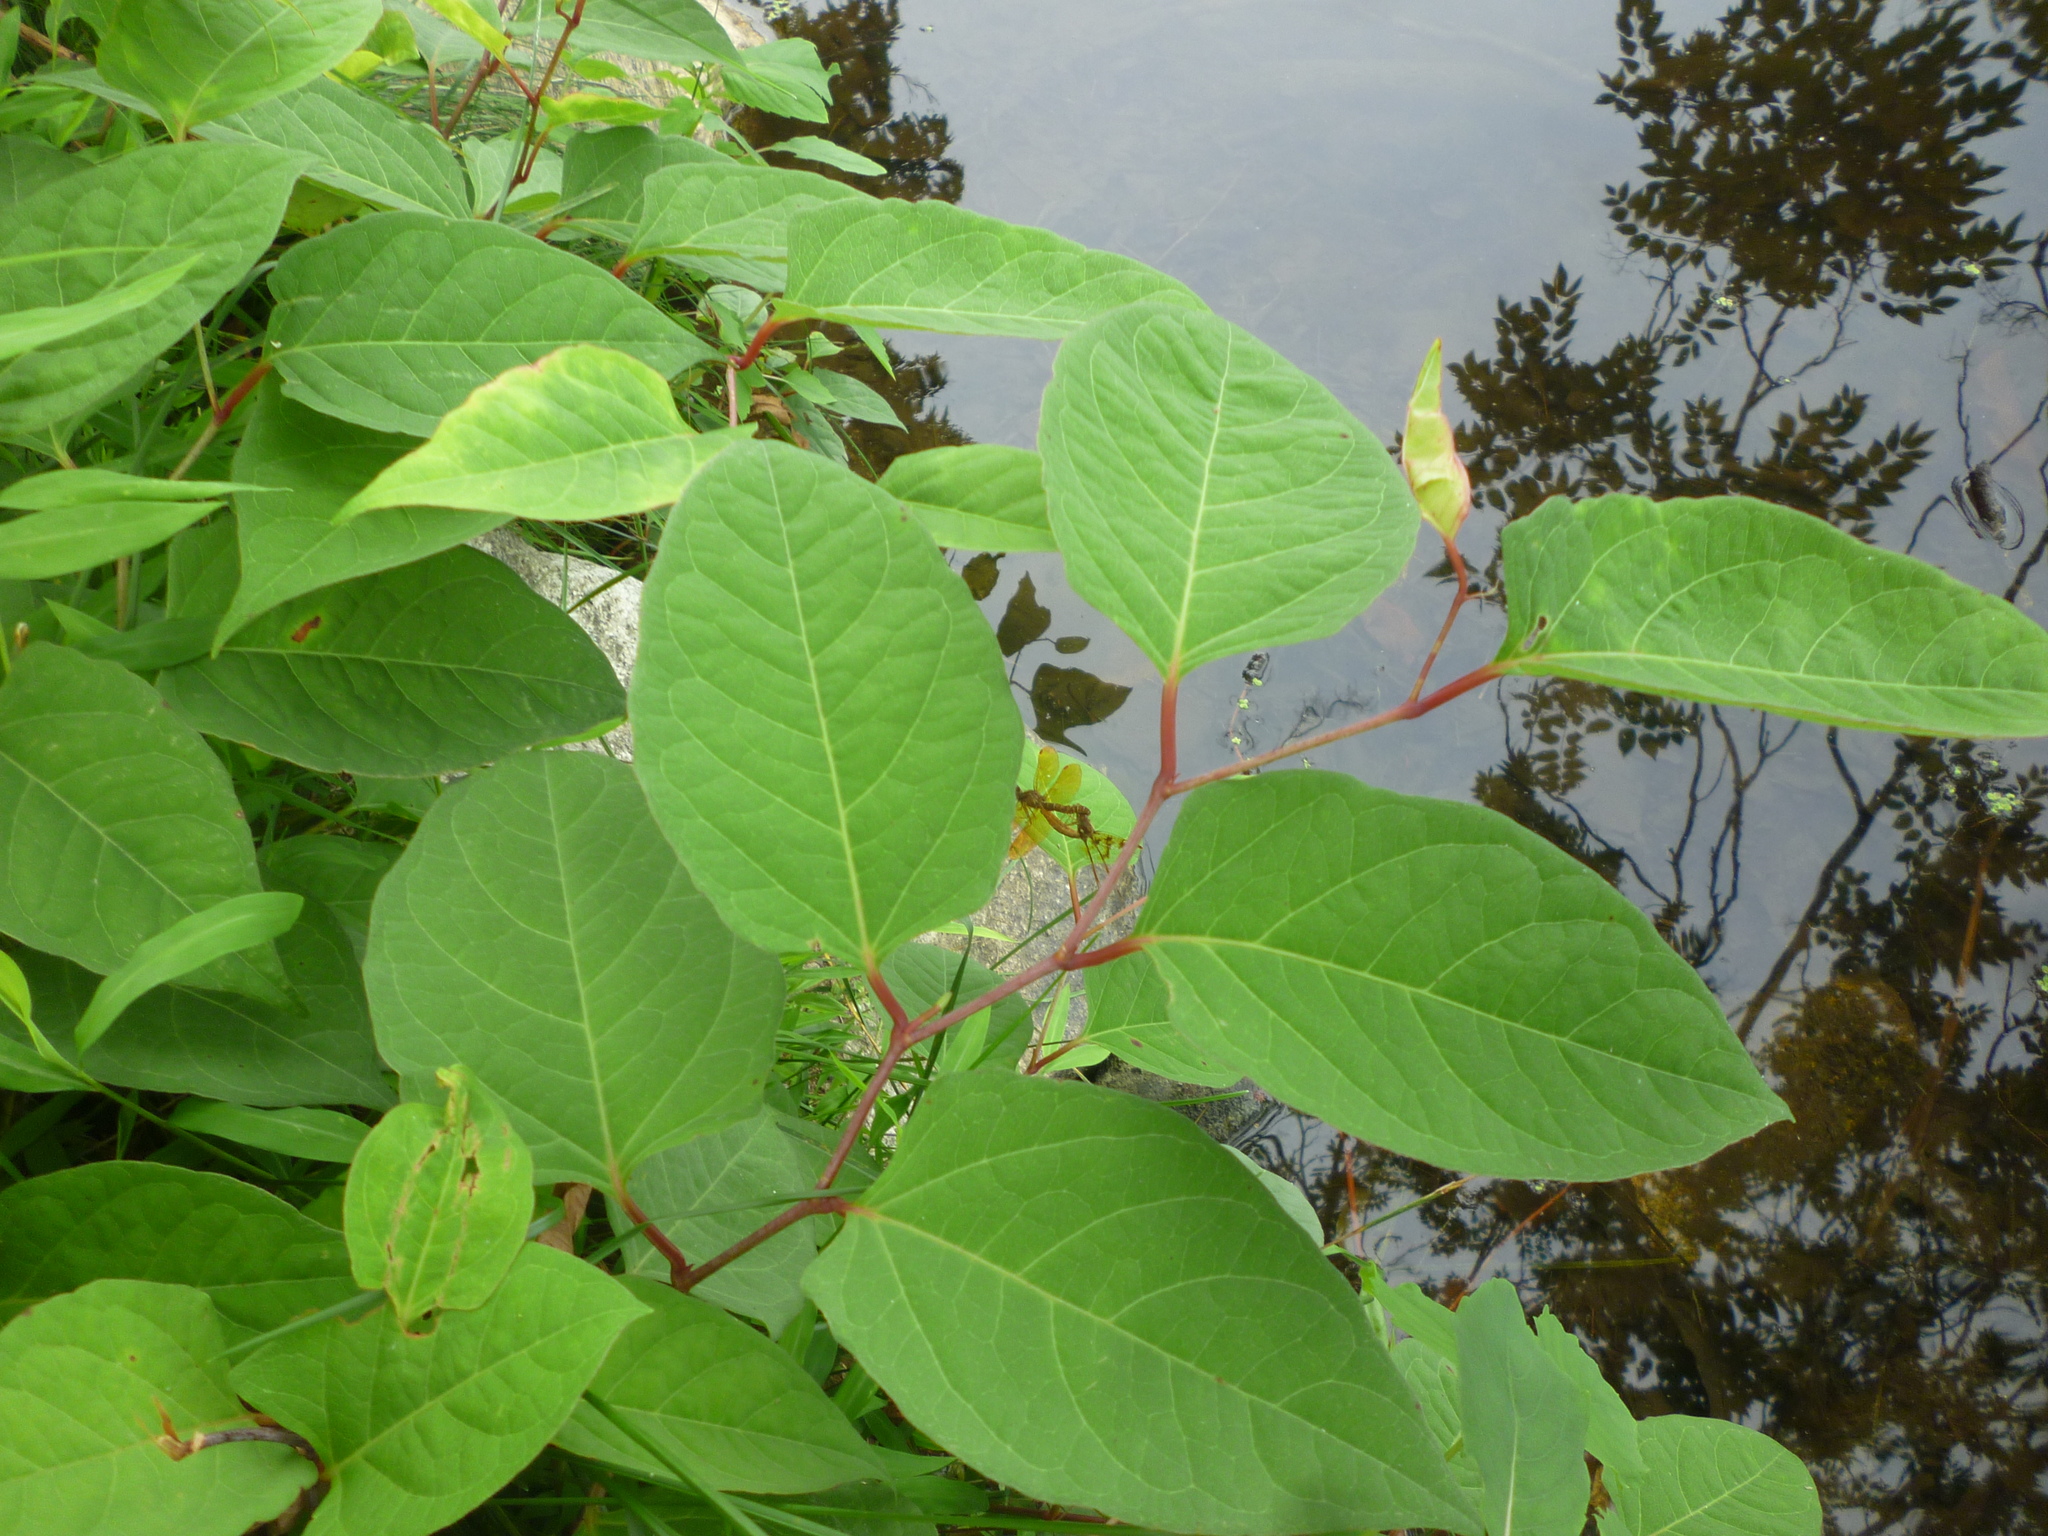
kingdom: Plantae
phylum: Tracheophyta
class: Magnoliopsida
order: Caryophyllales
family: Polygonaceae
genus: Reynoutria
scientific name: Reynoutria
